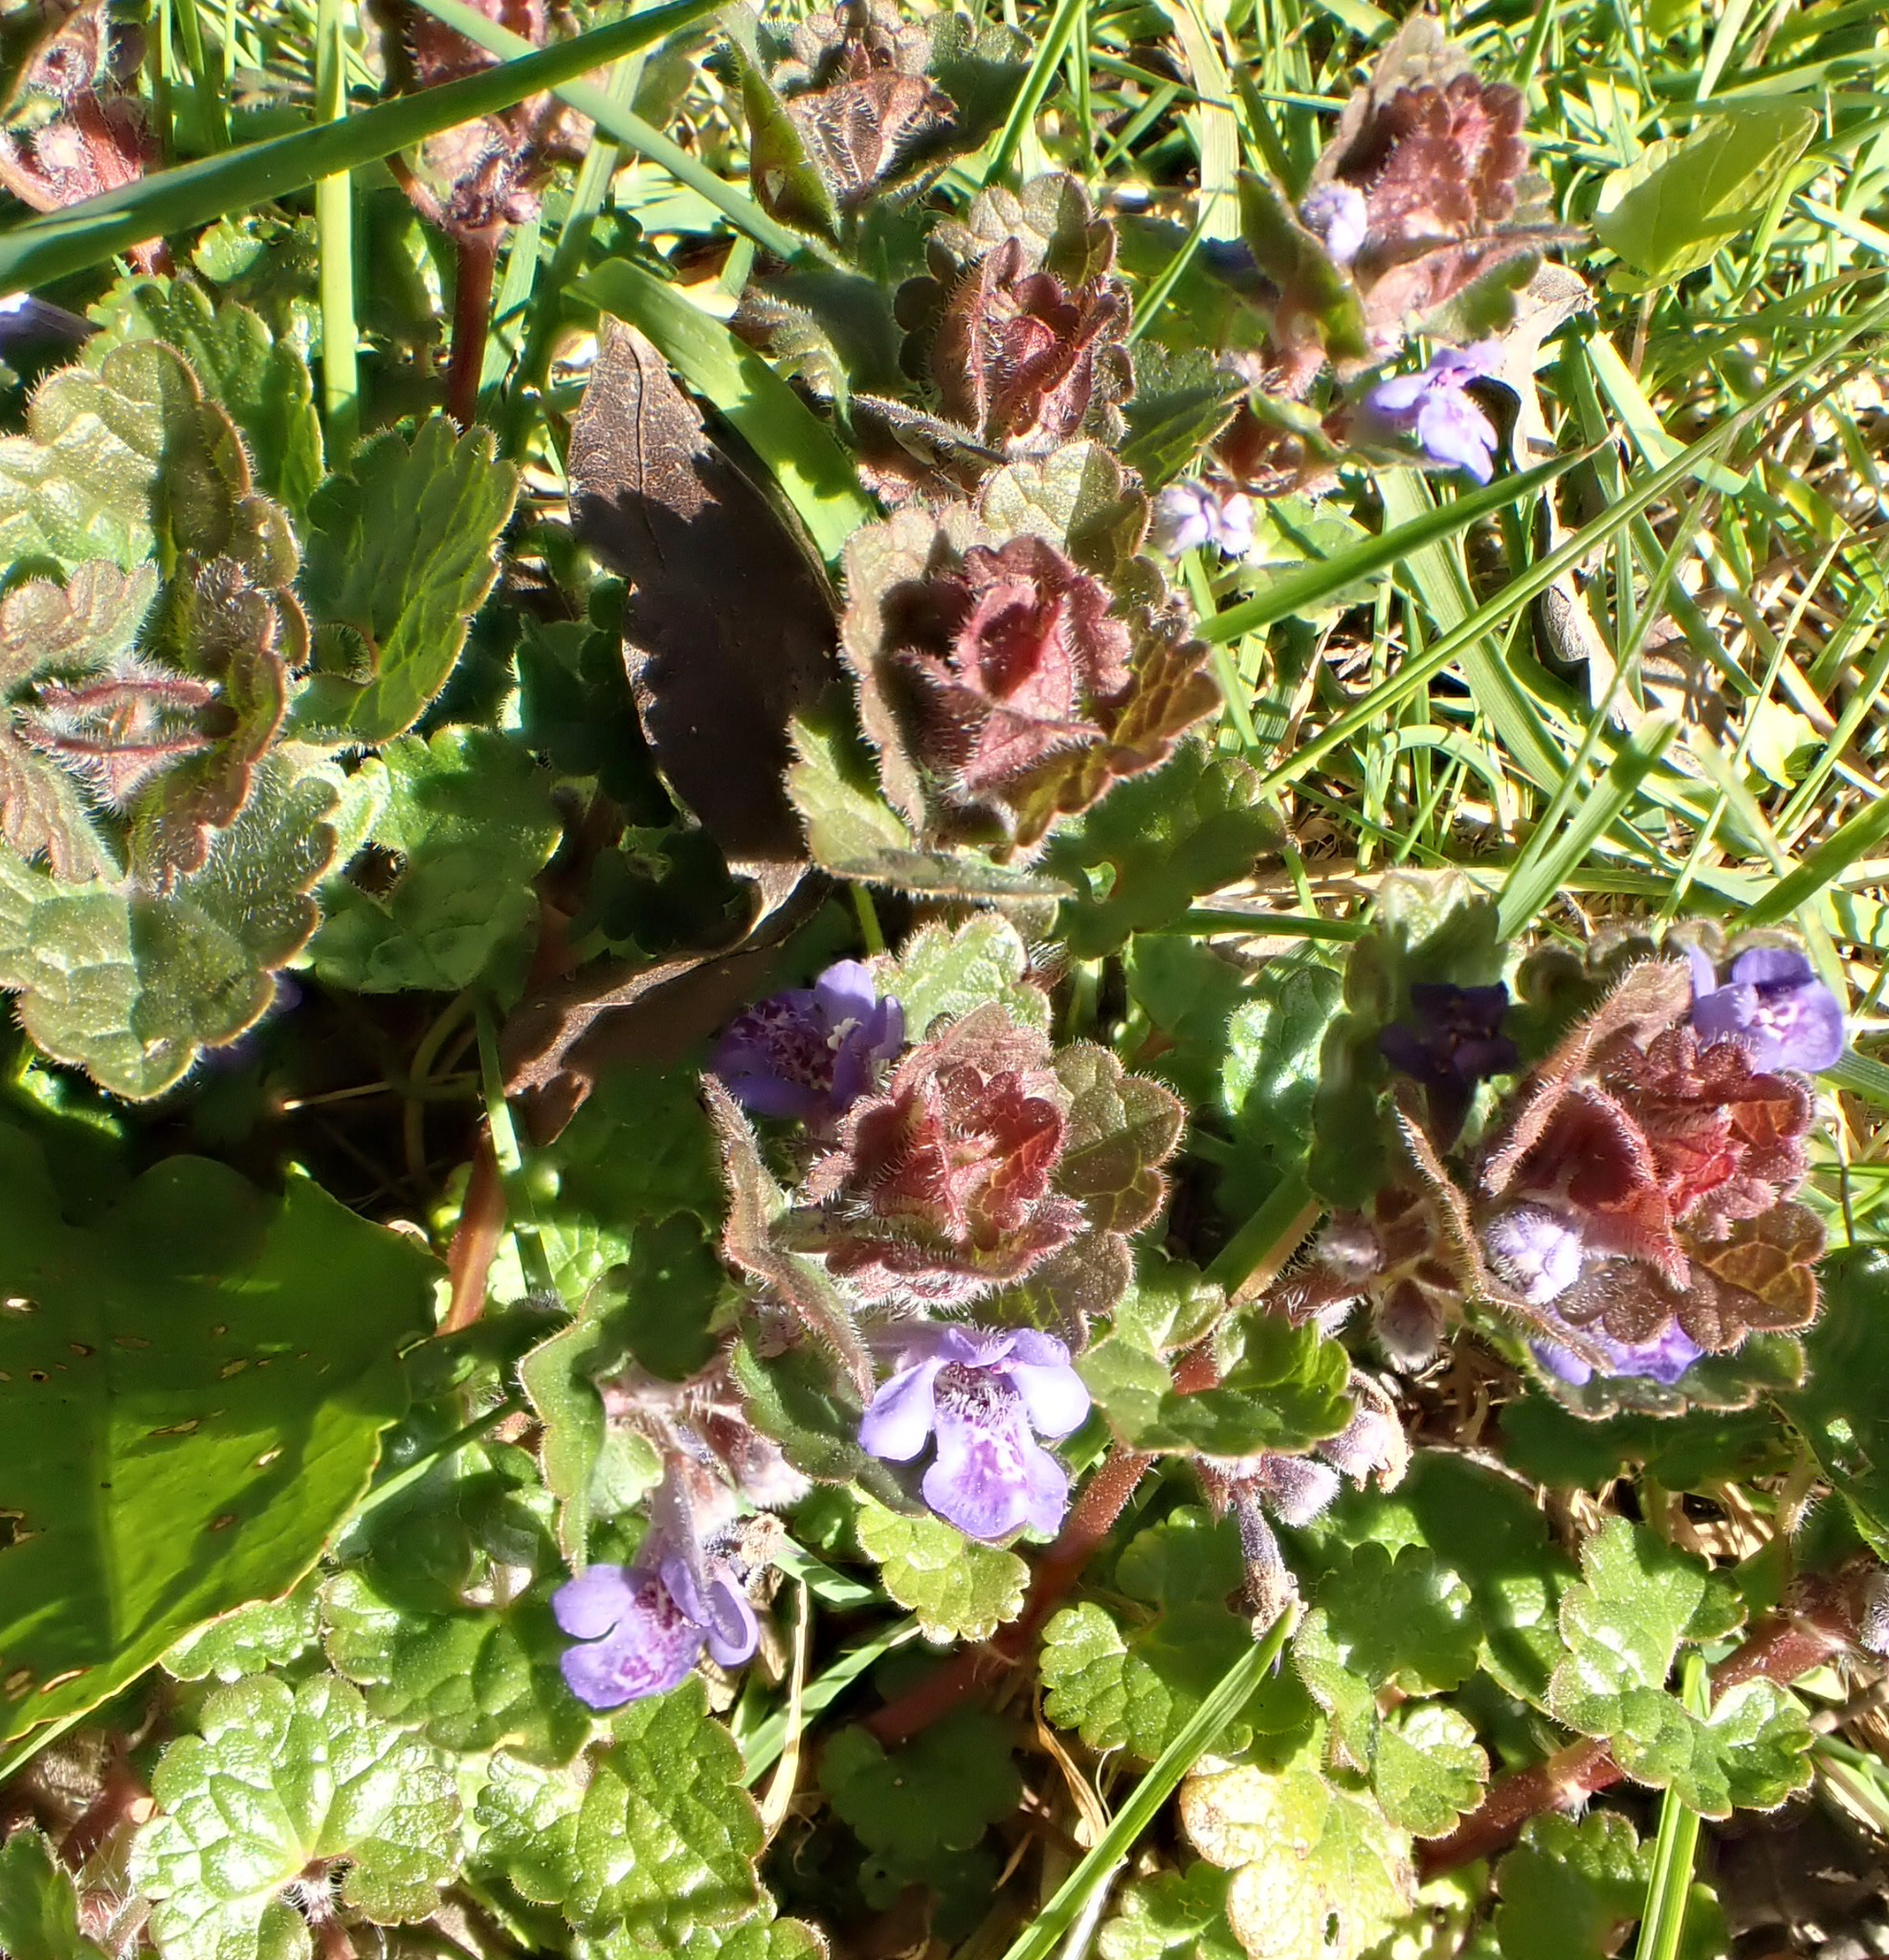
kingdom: Plantae
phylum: Tracheophyta
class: Magnoliopsida
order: Lamiales
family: Lamiaceae
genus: Glechoma
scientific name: Glechoma hederacea
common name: Ground ivy
